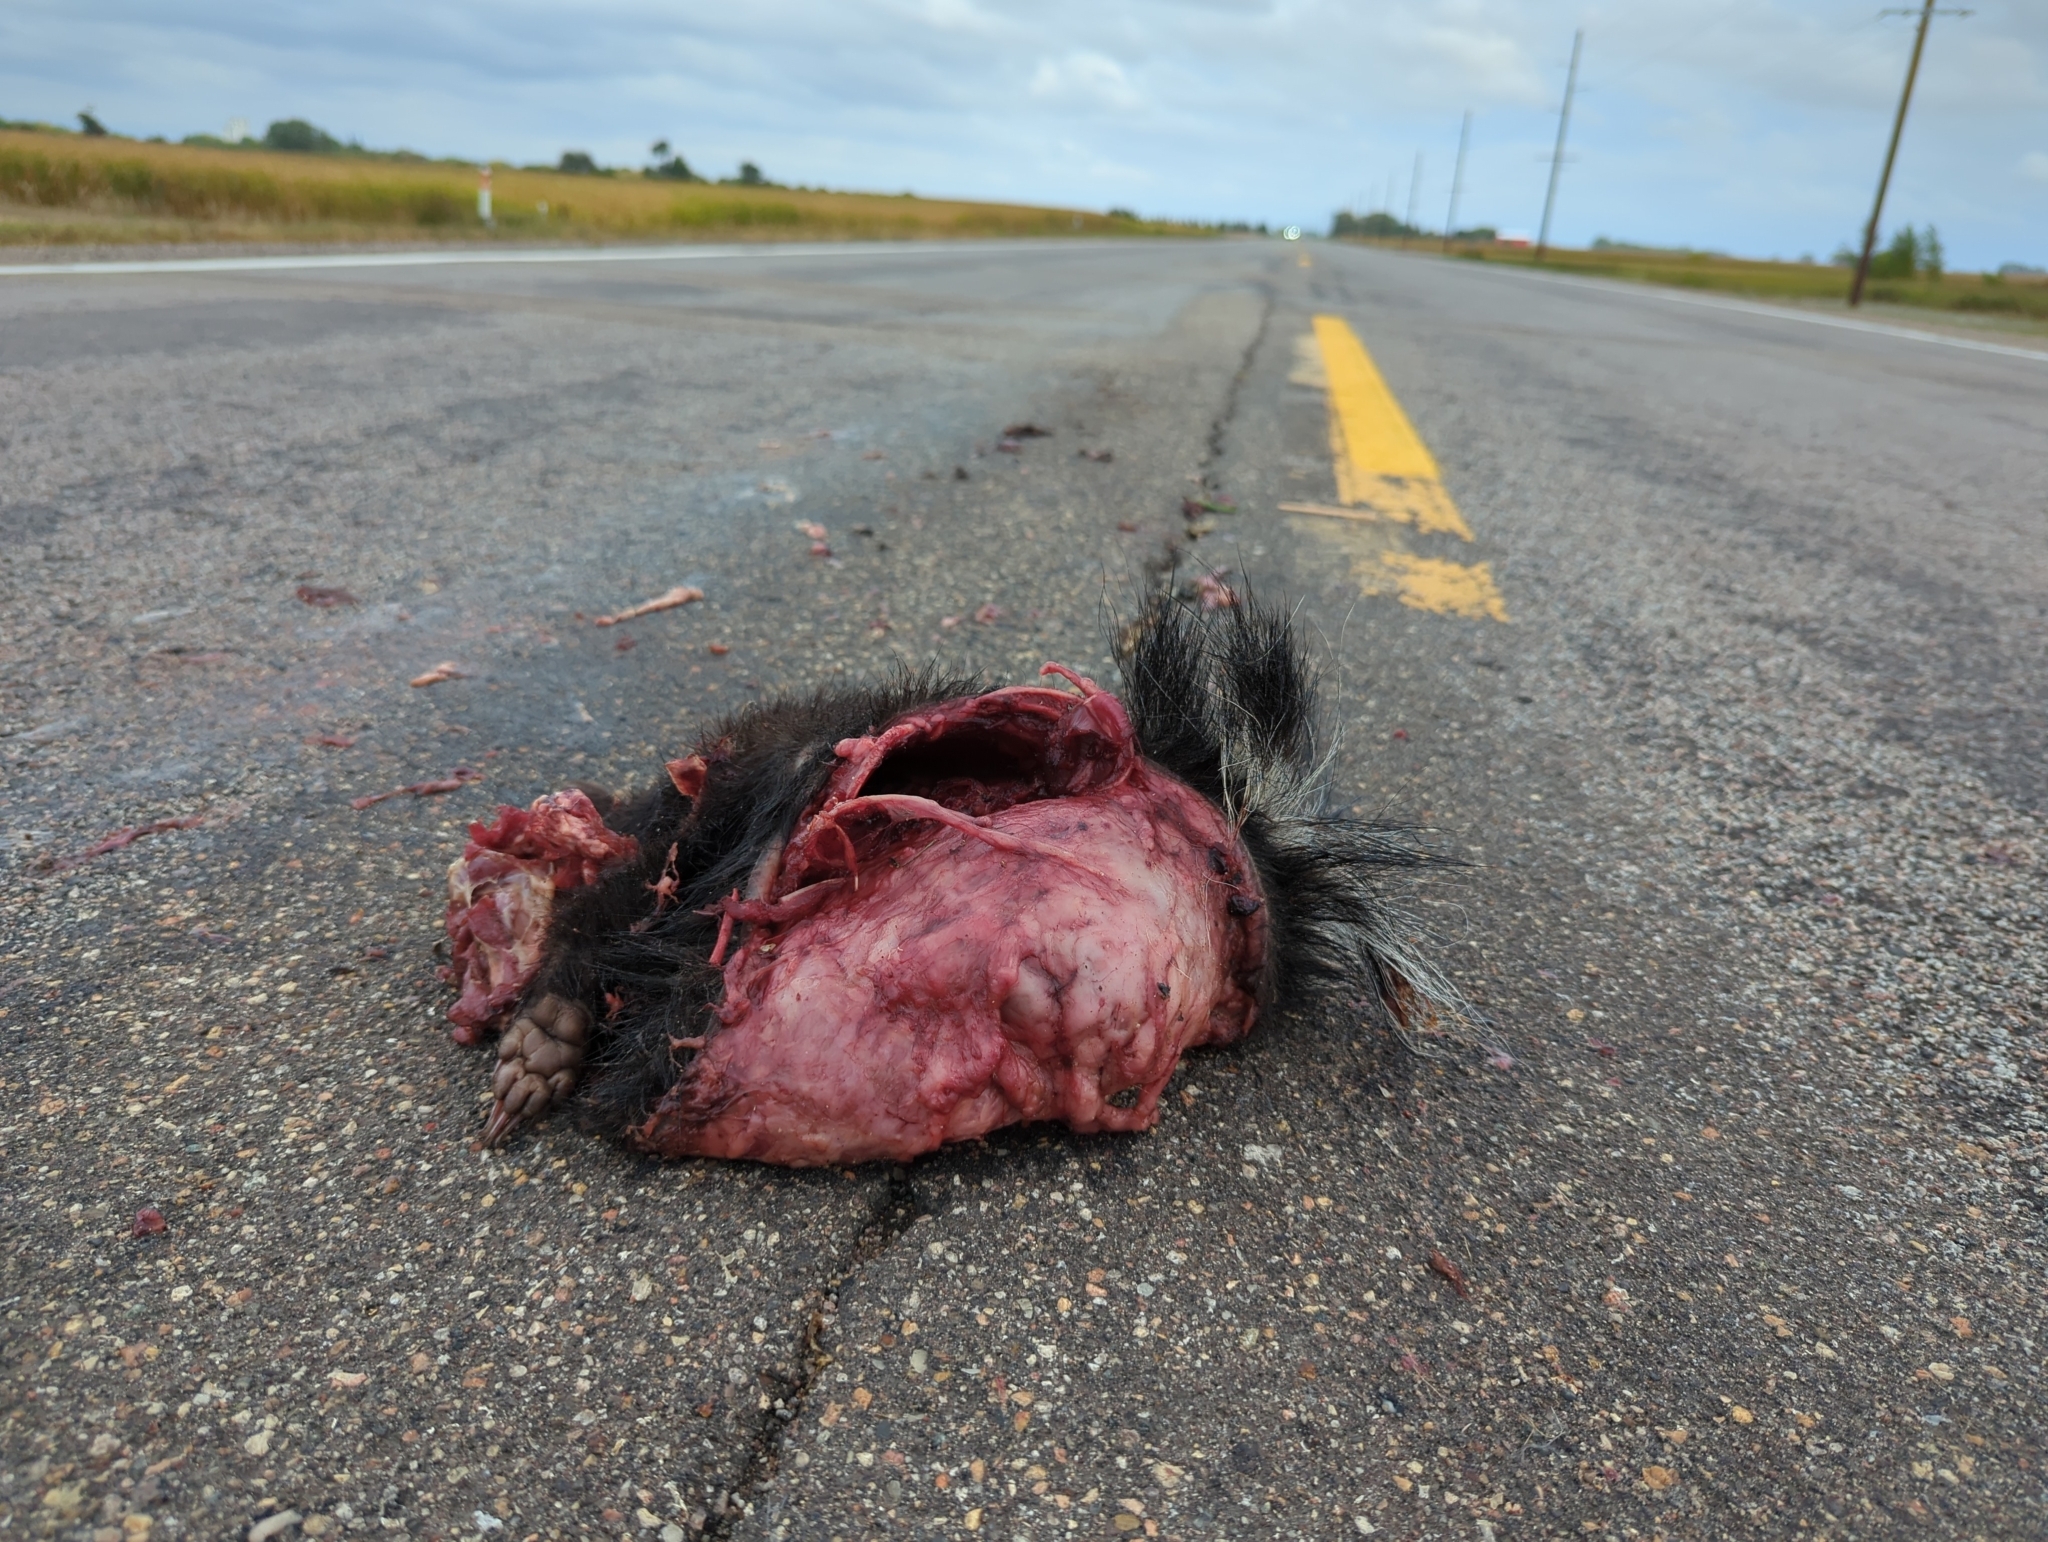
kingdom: Animalia
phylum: Chordata
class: Mammalia
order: Carnivora
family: Mephitidae
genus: Mephitis
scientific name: Mephitis mephitis
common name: Striped skunk
